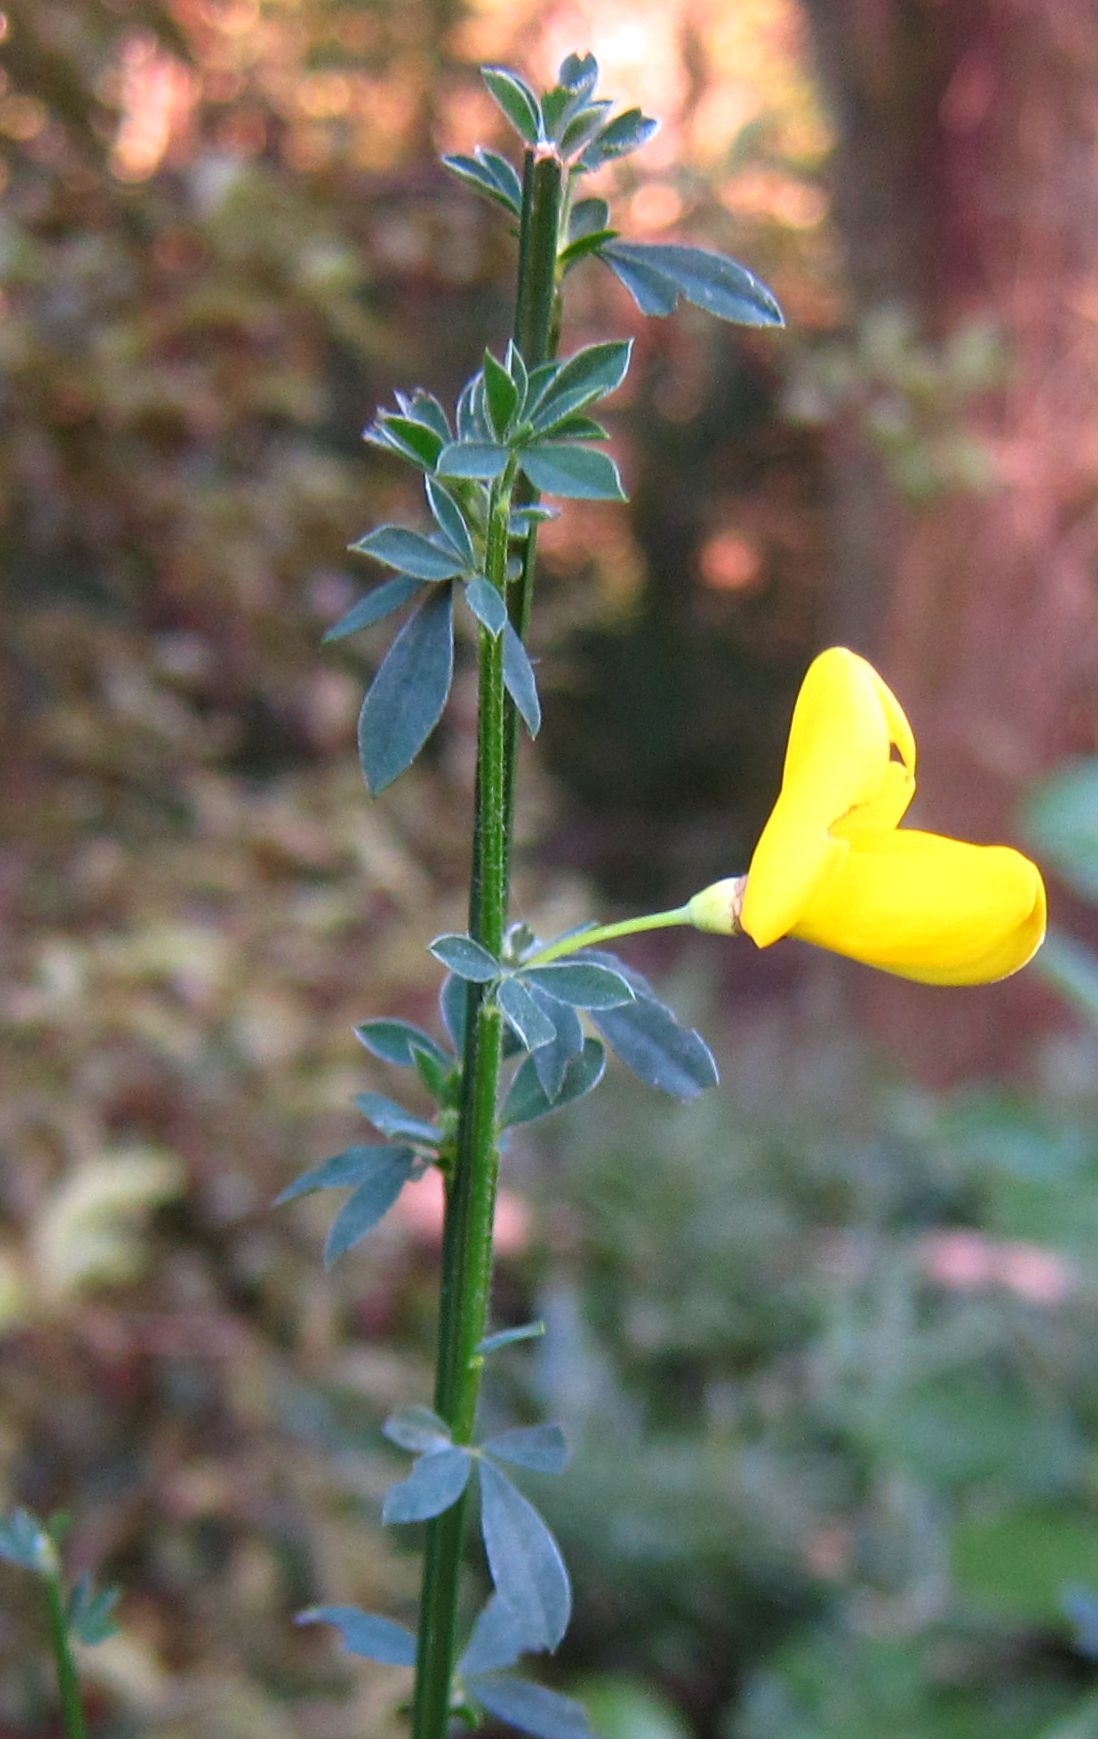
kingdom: Plantae
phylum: Tracheophyta
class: Magnoliopsida
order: Fabales
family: Fabaceae
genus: Cytisus
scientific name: Cytisus scoparius
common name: Scotch broom
